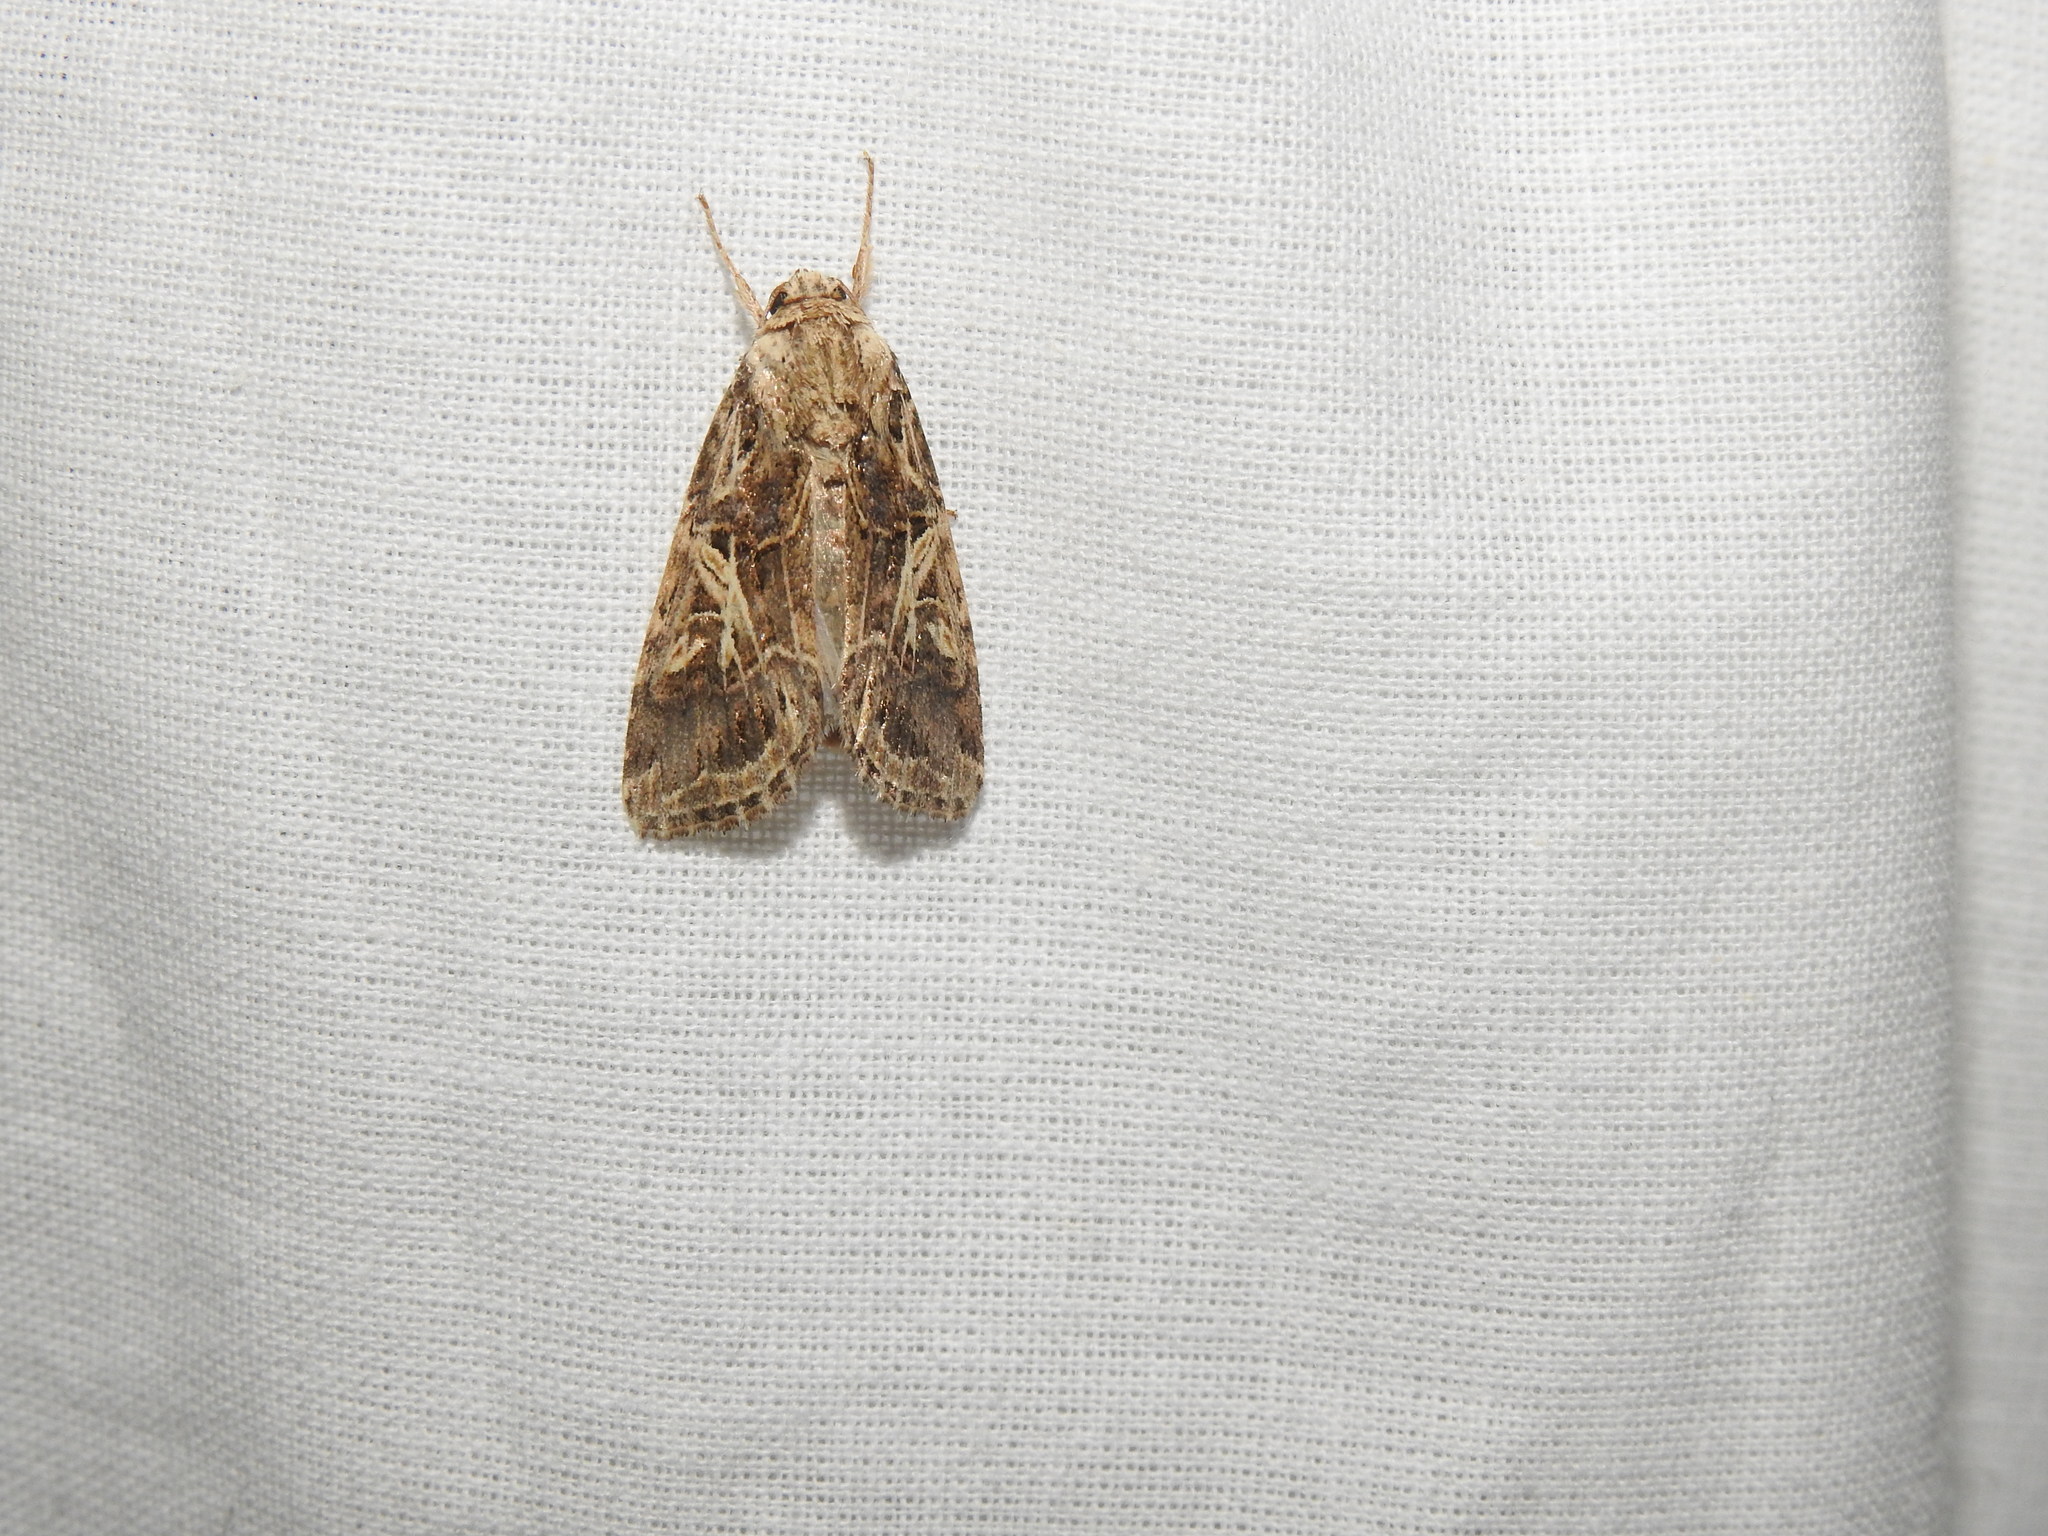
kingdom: Animalia
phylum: Arthropoda
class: Insecta
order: Lepidoptera
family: Noctuidae
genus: Spodoptera
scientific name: Spodoptera litura
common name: Asian cotton leafworm
